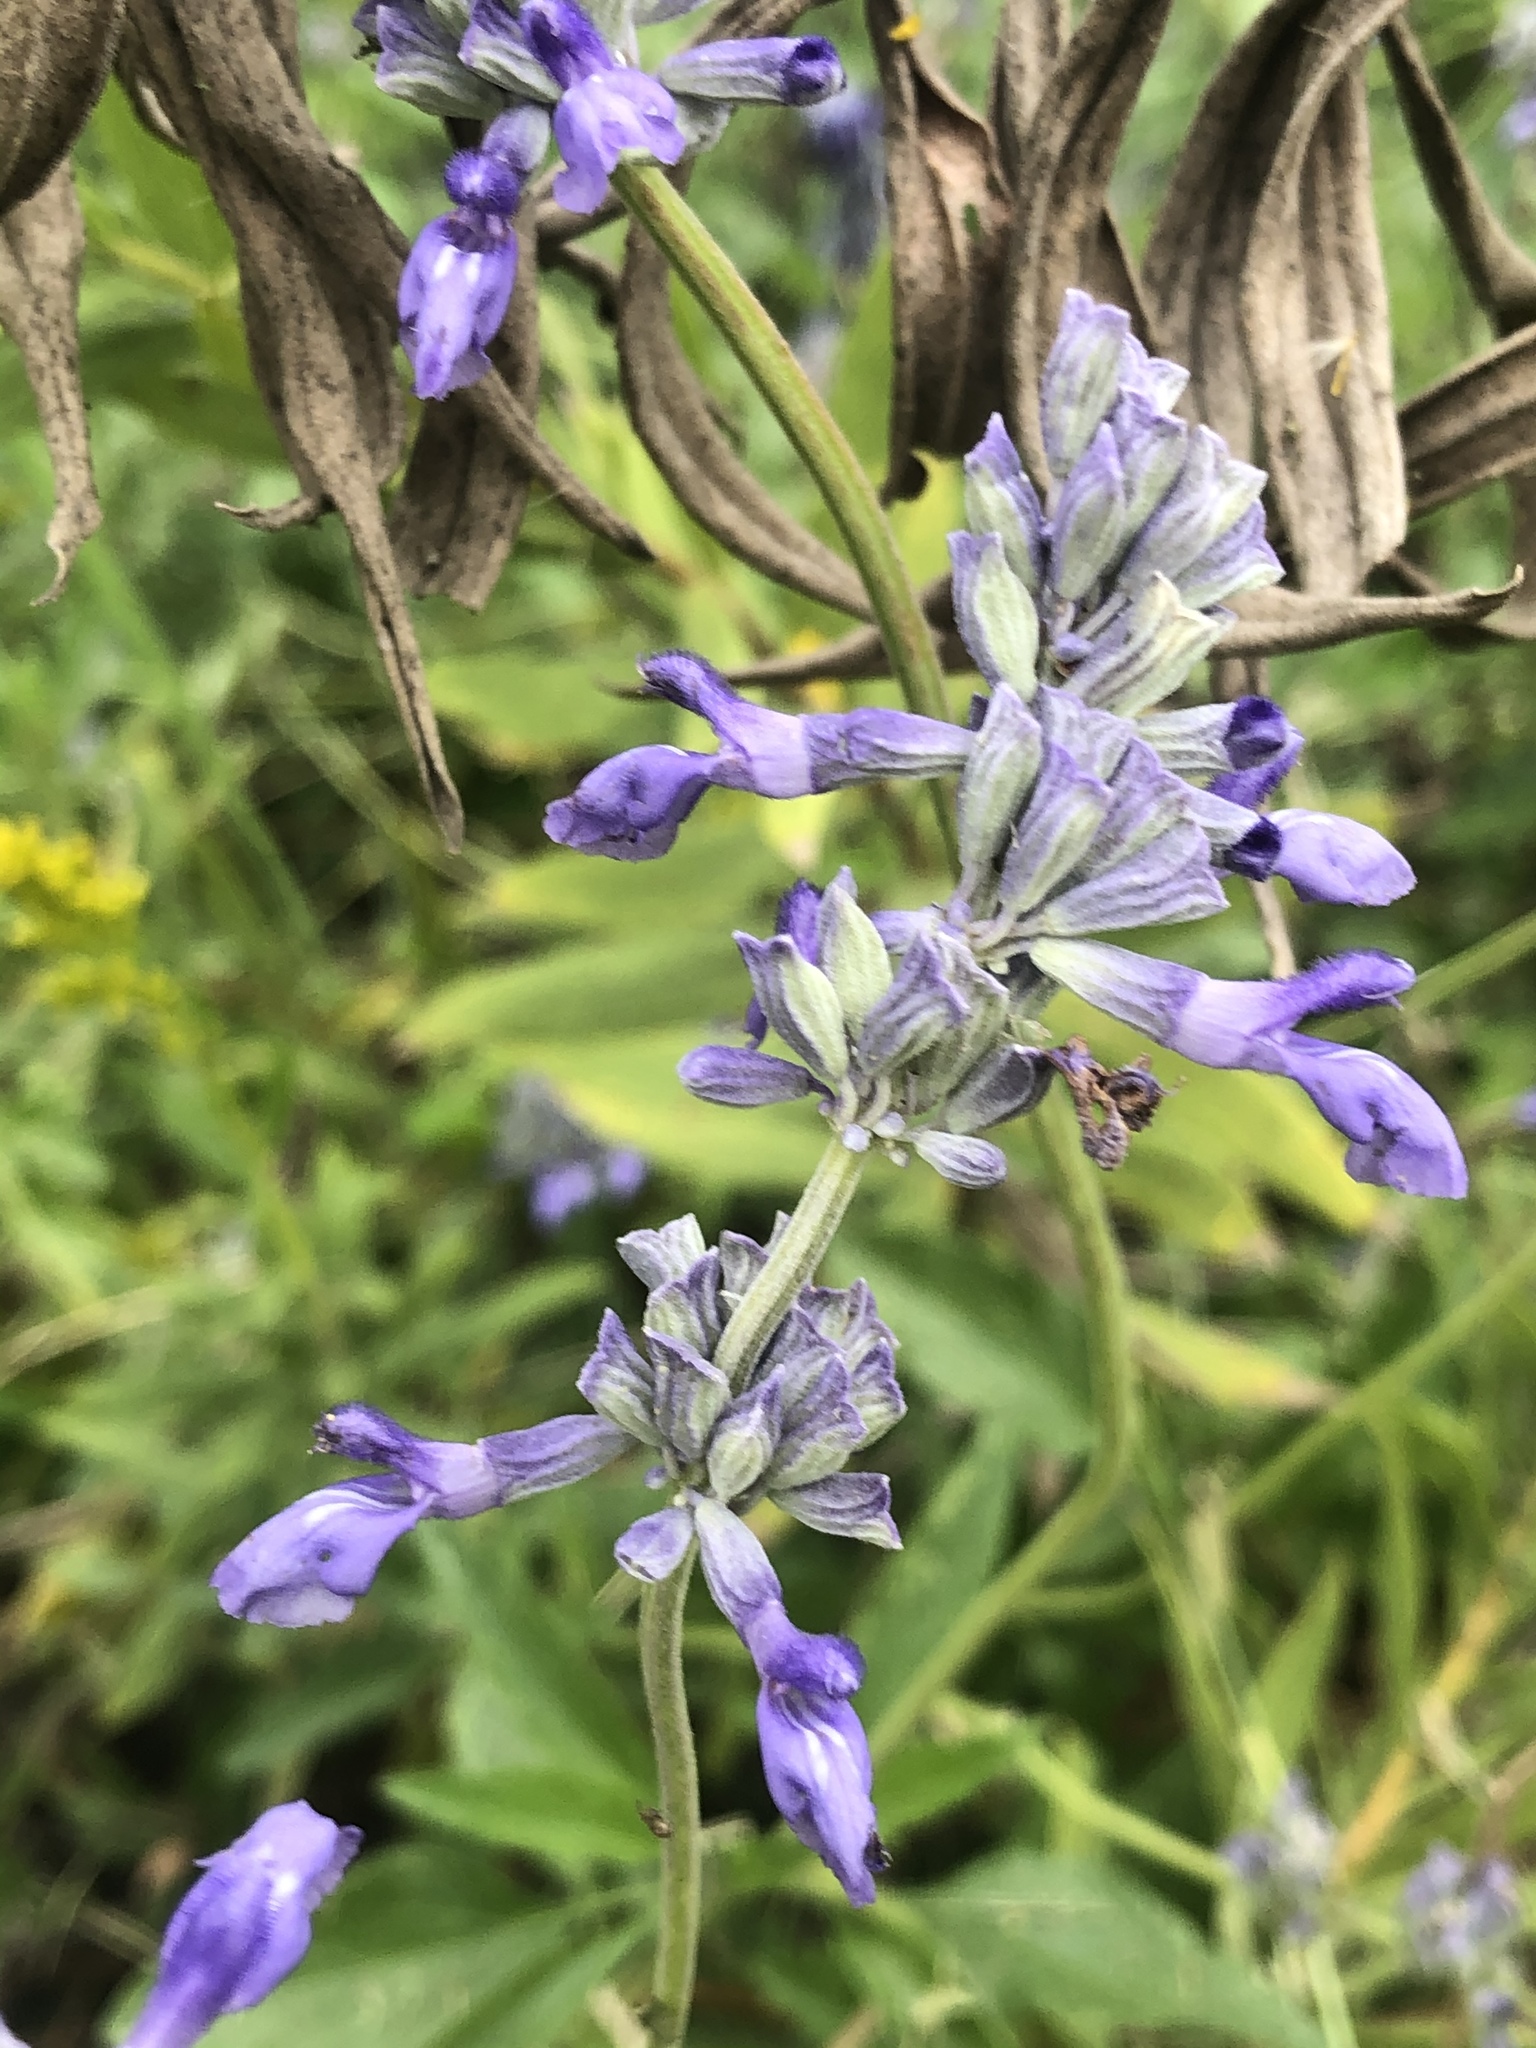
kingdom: Plantae
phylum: Tracheophyta
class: Magnoliopsida
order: Lamiales
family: Lamiaceae
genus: Salvia
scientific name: Salvia farinacea
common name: Mealy sage
